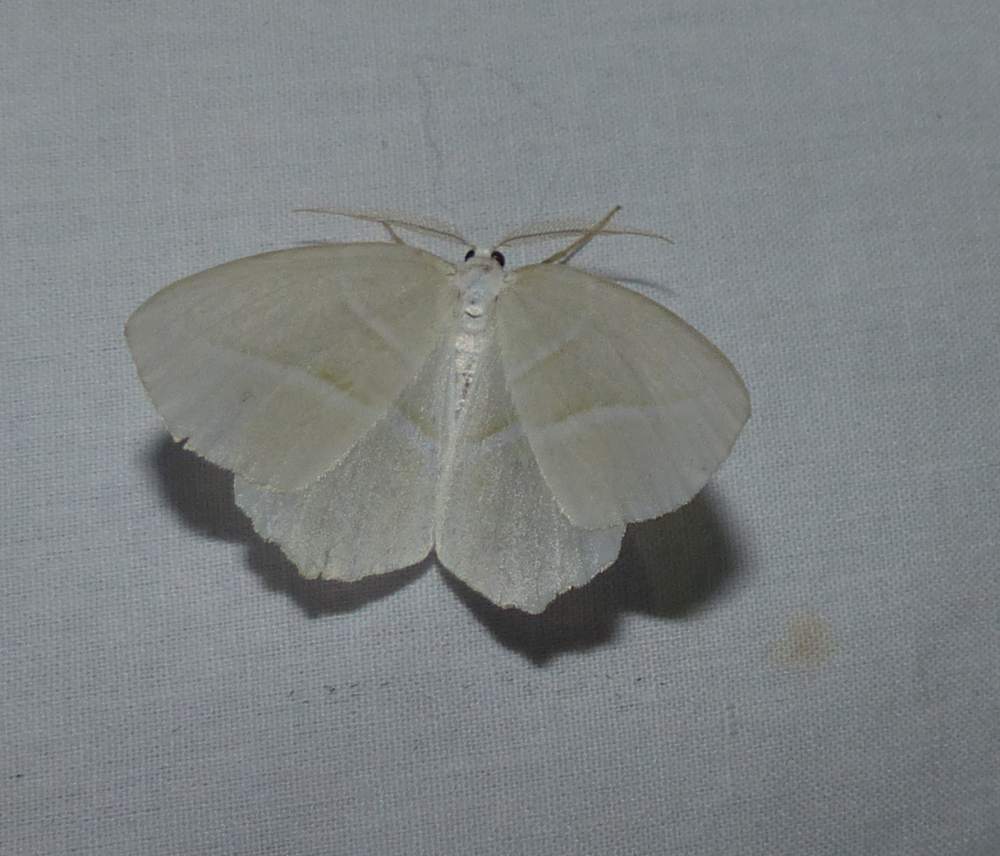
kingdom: Animalia
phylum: Arthropoda
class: Insecta
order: Lepidoptera
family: Geometridae
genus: Campaea
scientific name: Campaea perlata
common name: Fringed looper
